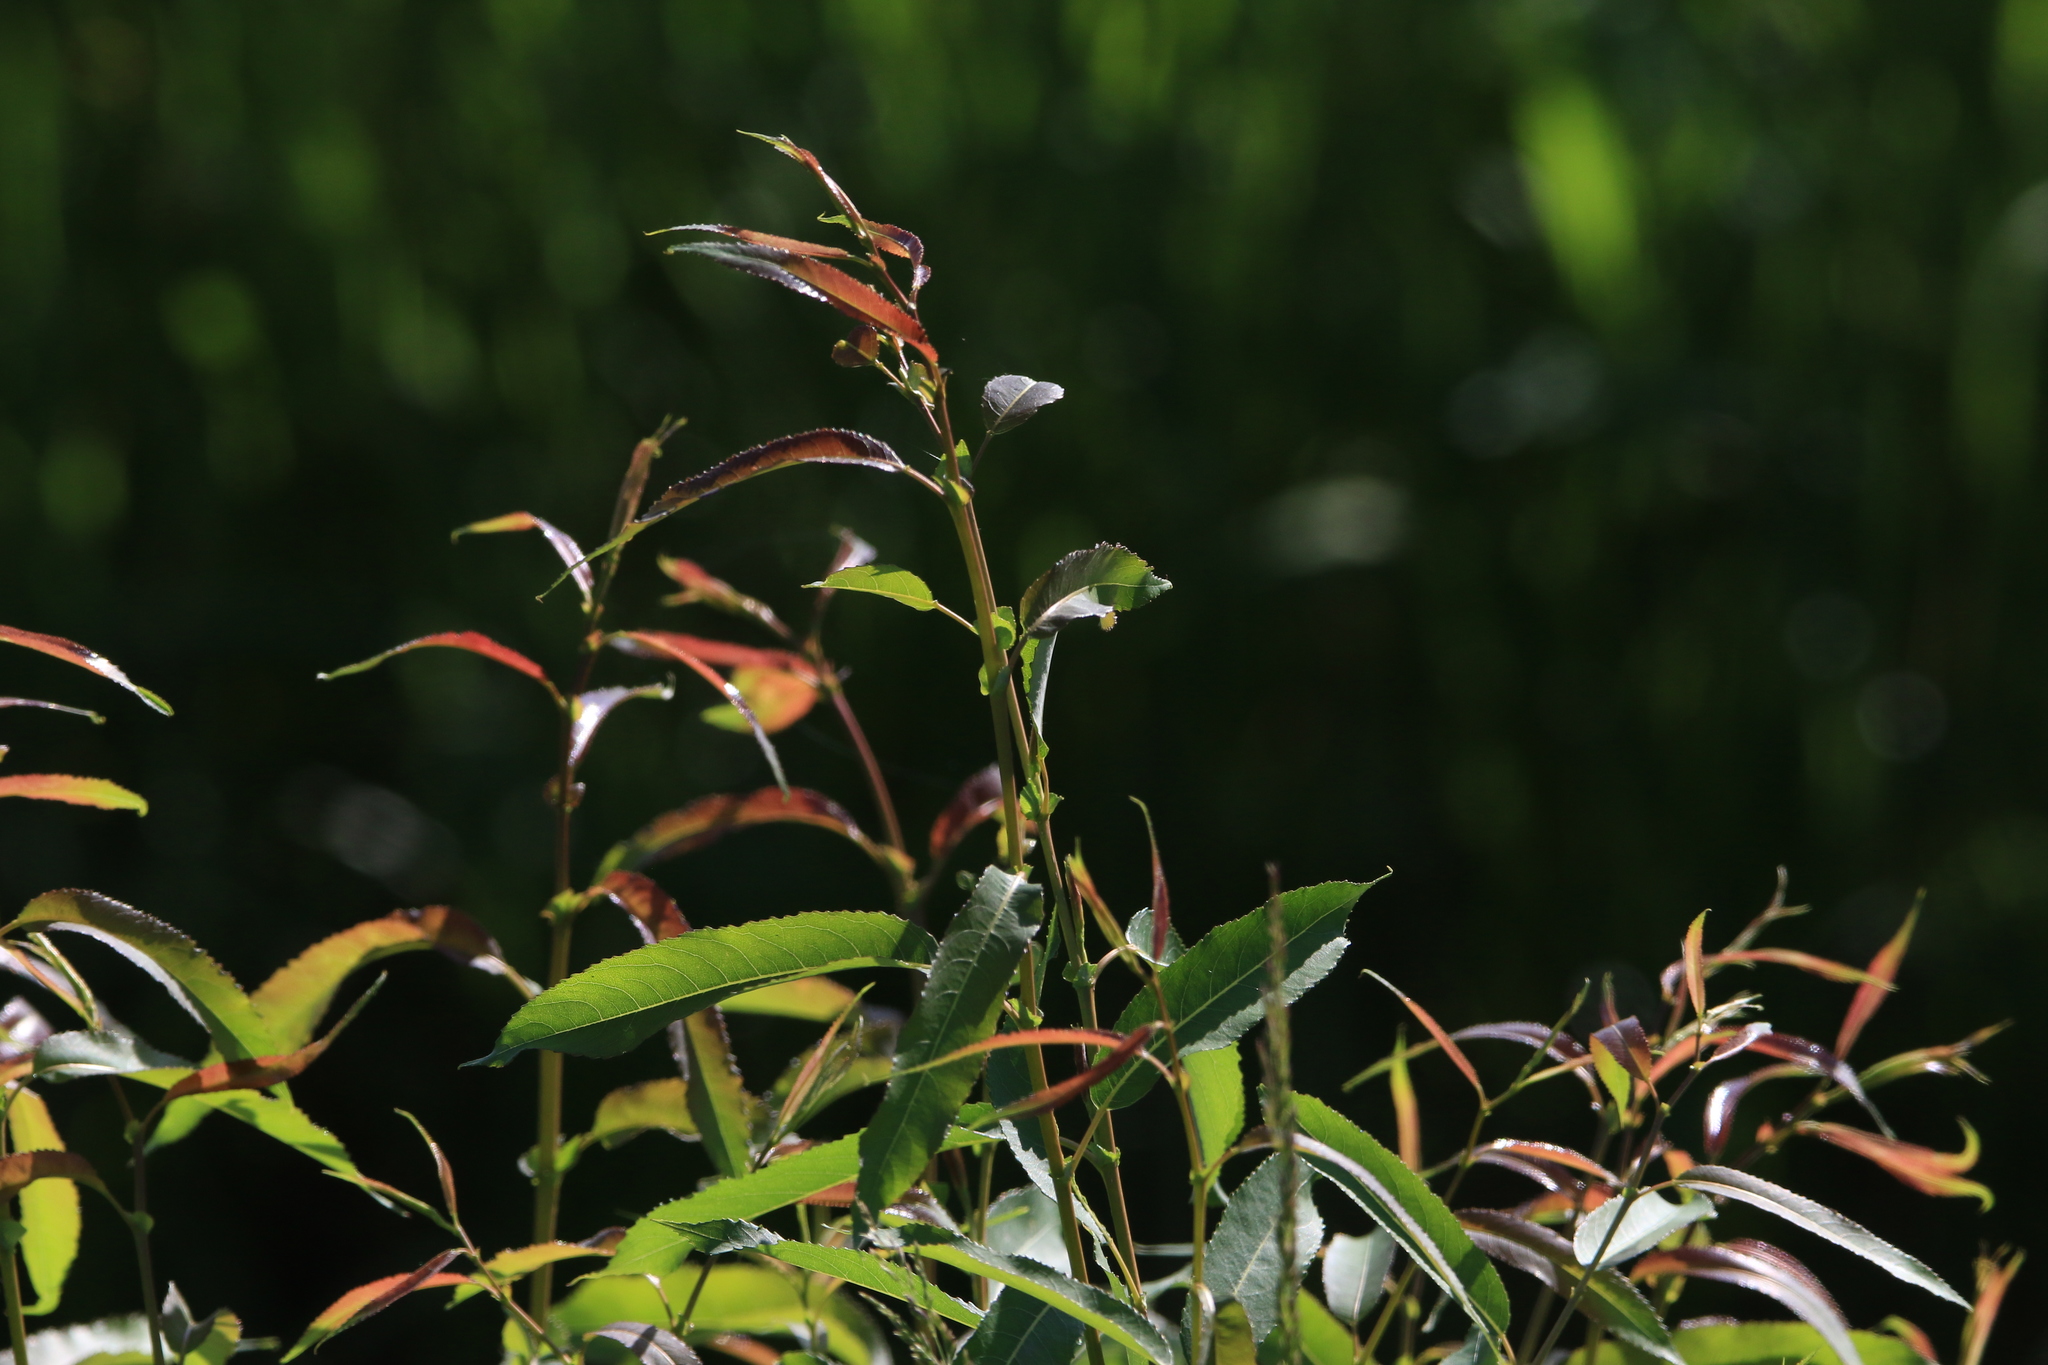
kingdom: Plantae
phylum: Tracheophyta
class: Magnoliopsida
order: Malpighiales
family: Salicaceae
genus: Salix
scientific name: Salix triandra
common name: Almond willow
